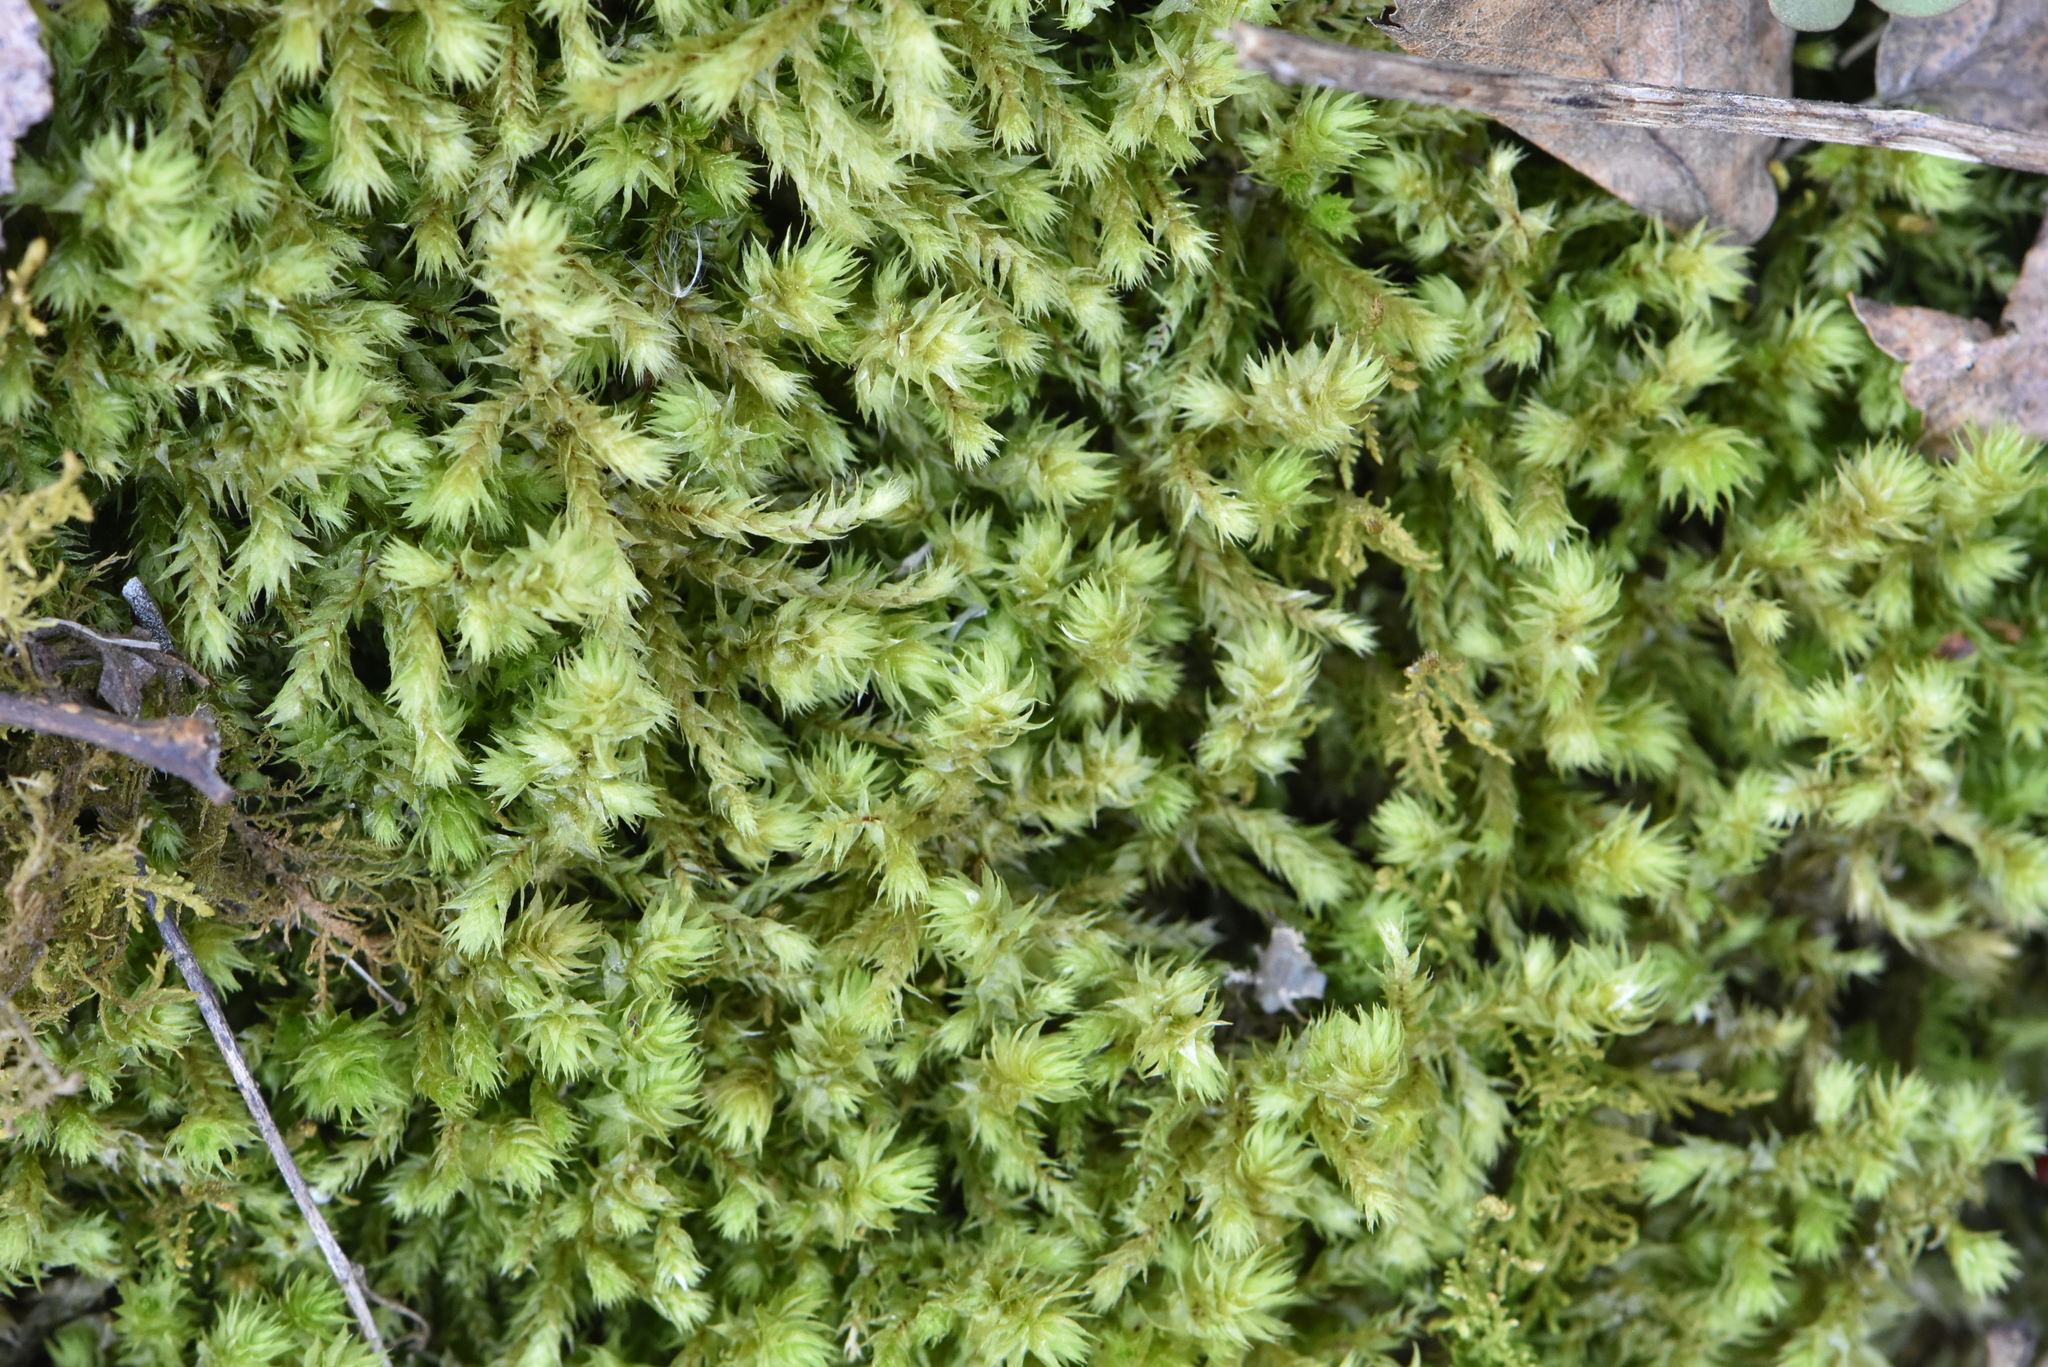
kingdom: Plantae
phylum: Bryophyta
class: Bryopsida
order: Hypnales
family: Hylocomiaceae
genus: Hylocomiadelphus
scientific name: Hylocomiadelphus triquetrus
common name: Rough goose neck moss
